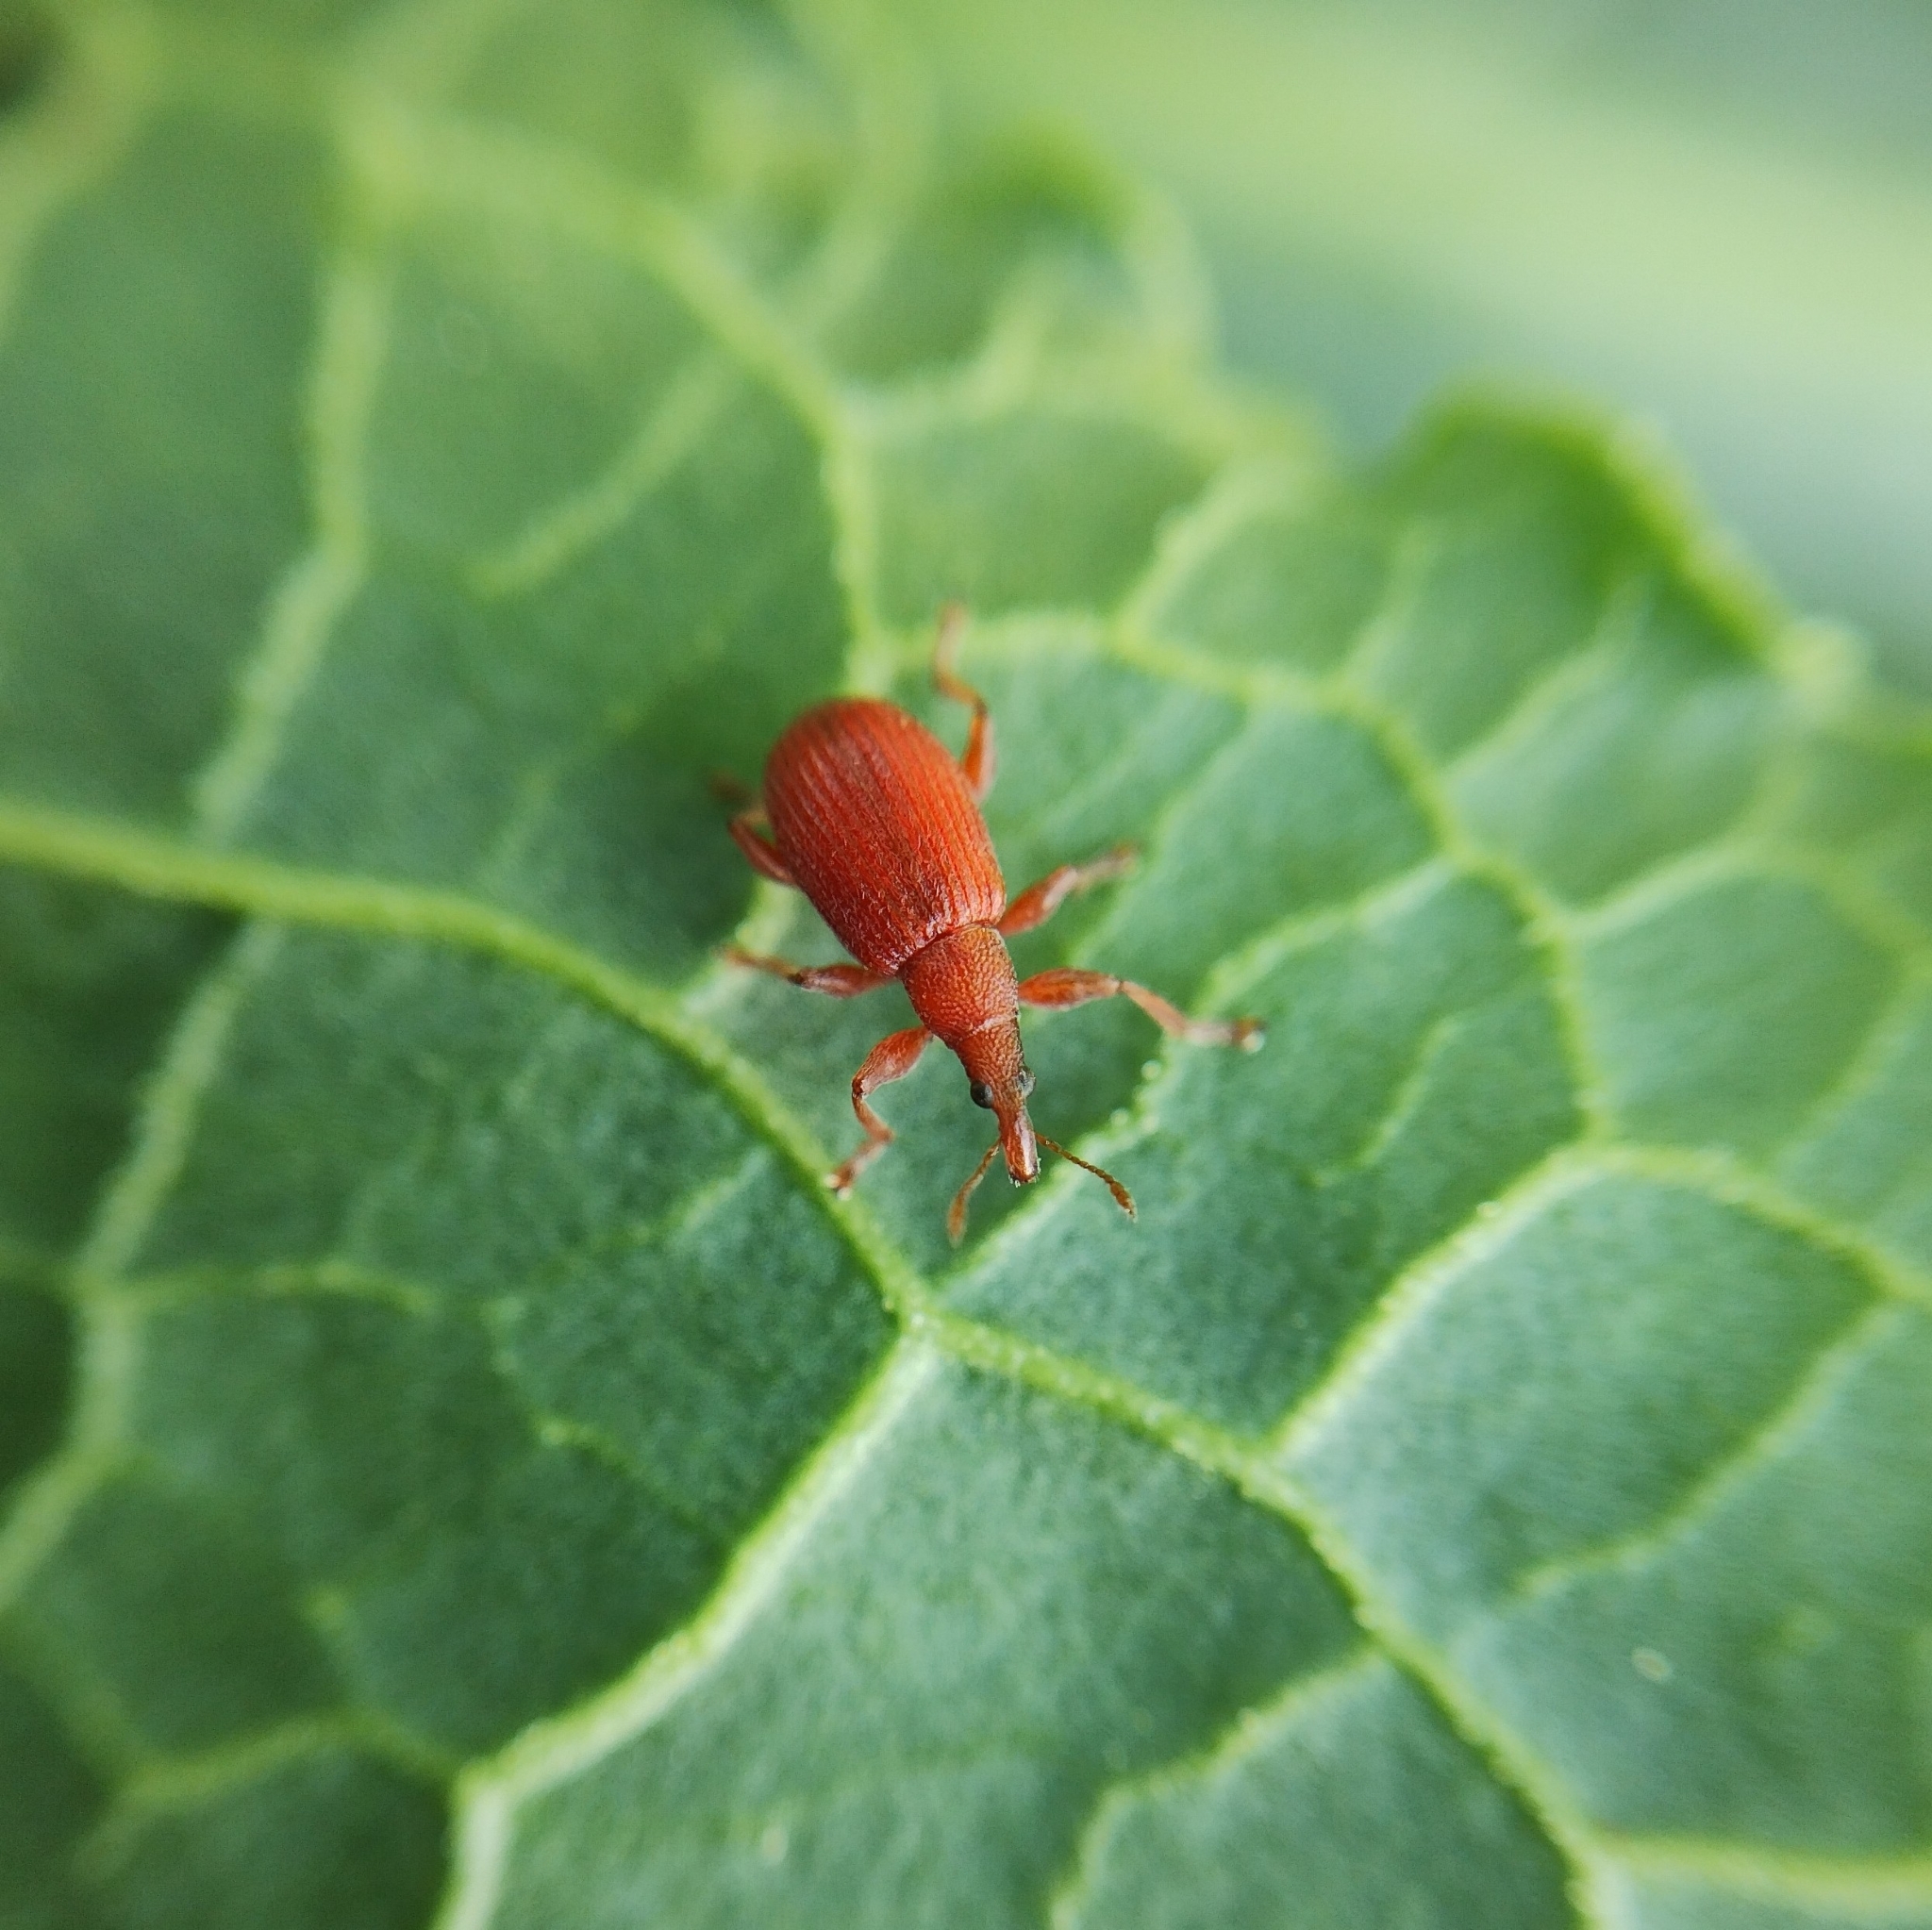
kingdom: Animalia
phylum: Arthropoda
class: Insecta
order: Coleoptera
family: Apionidae
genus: Apion
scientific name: Apion frumentarium
